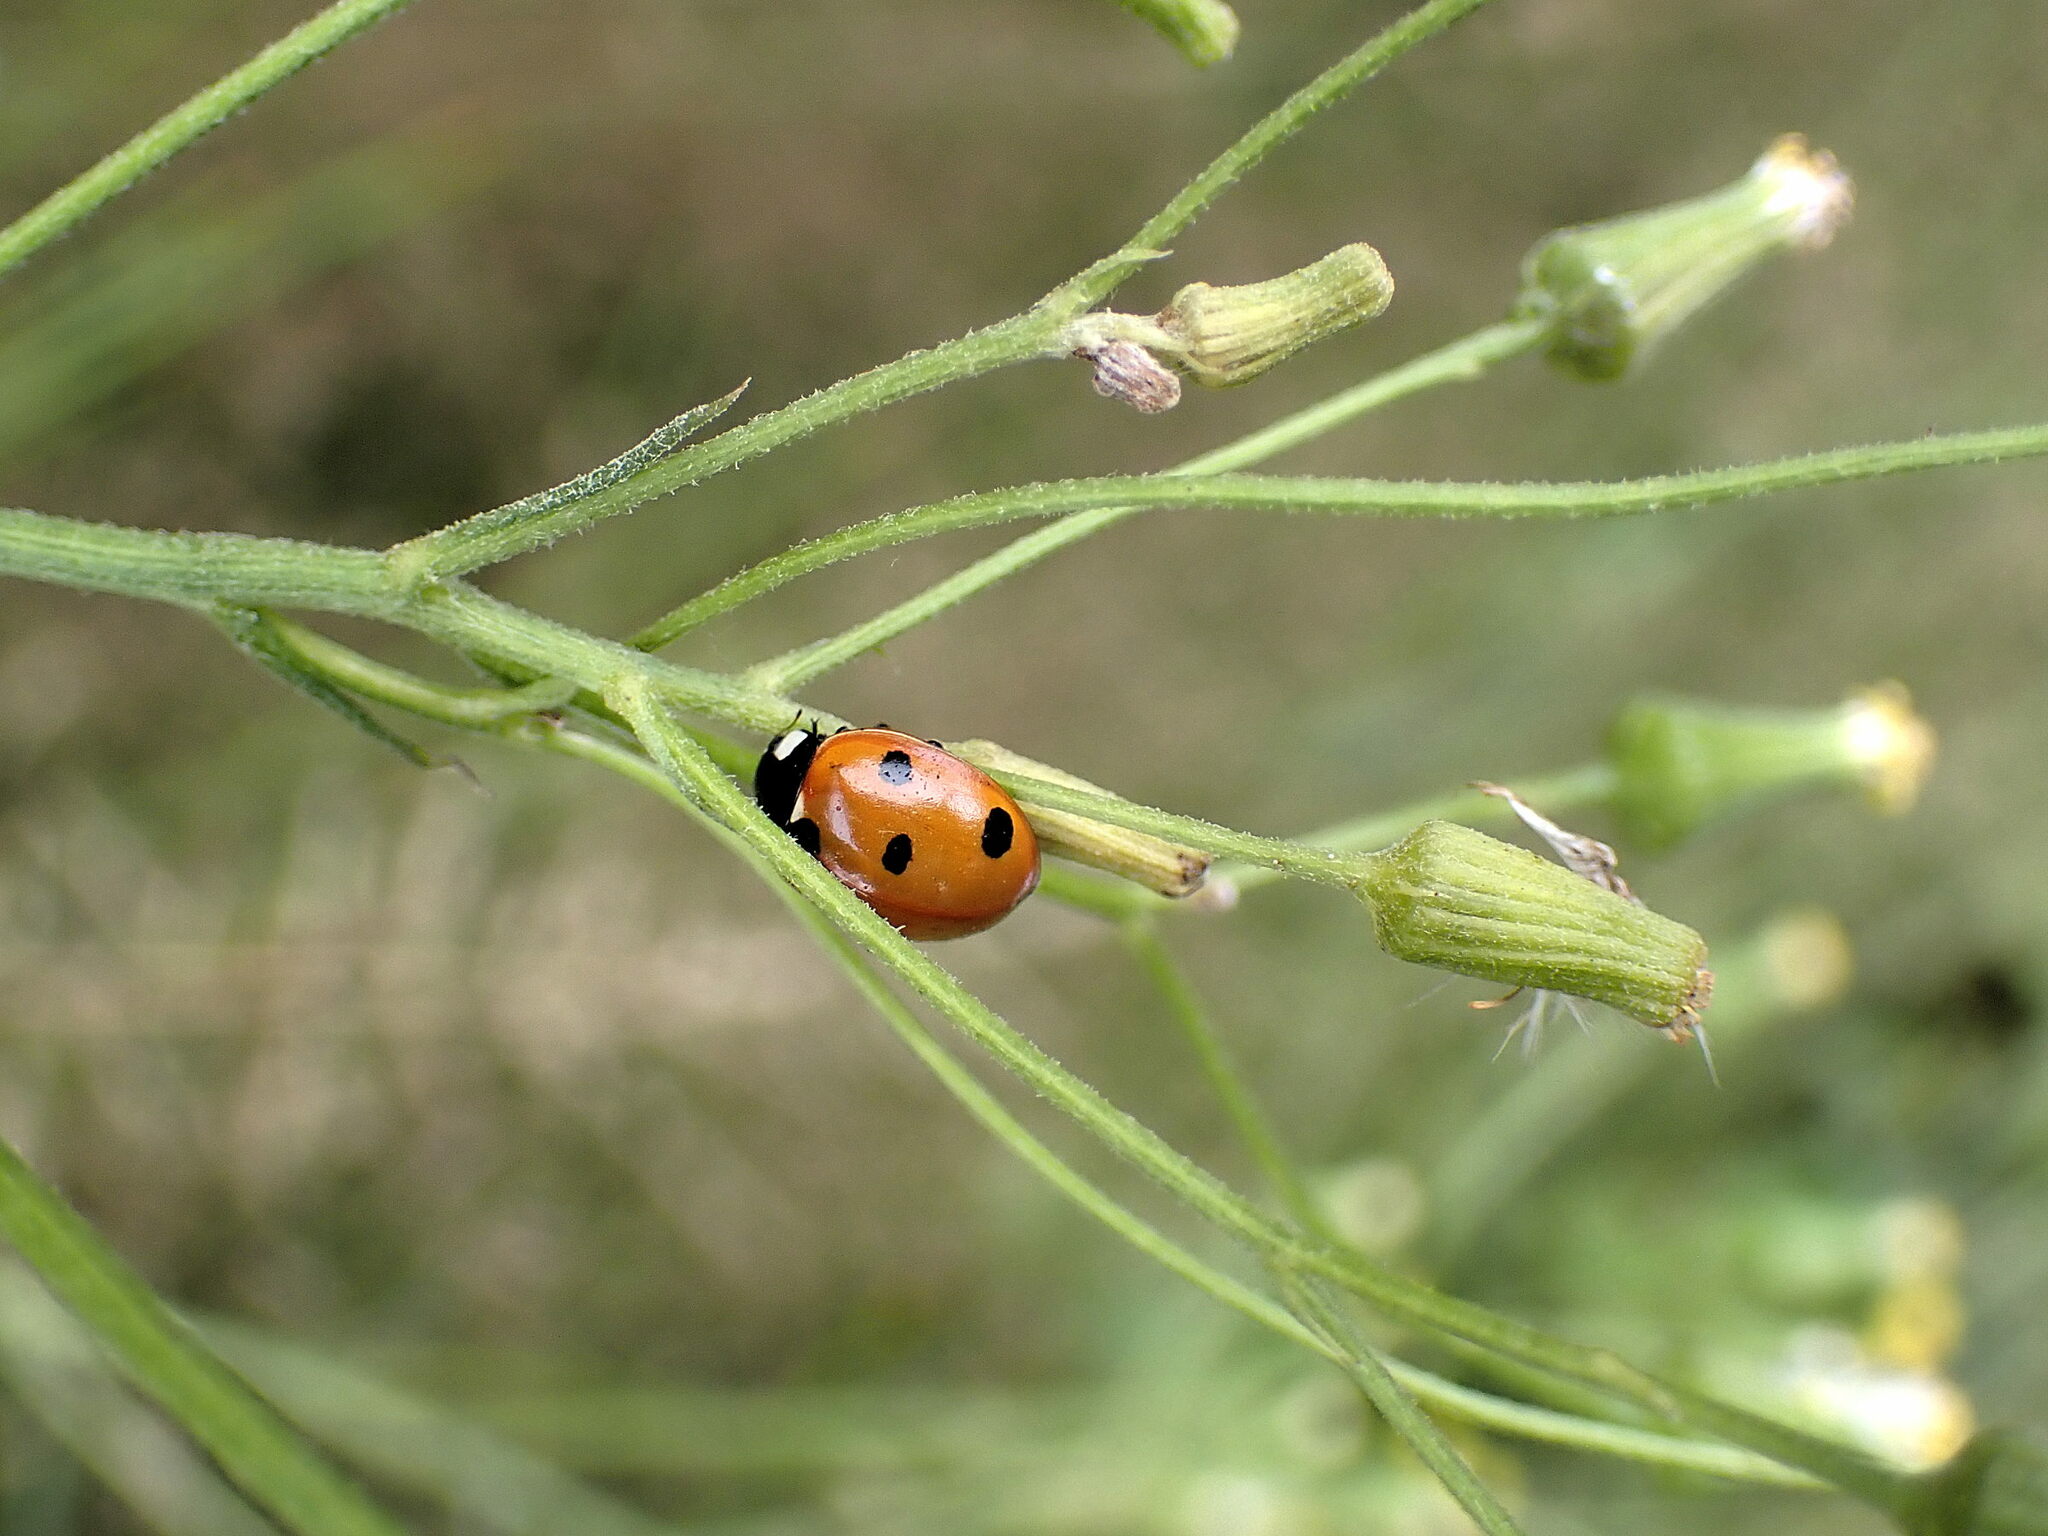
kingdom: Animalia
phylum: Arthropoda
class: Insecta
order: Coleoptera
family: Coccinellidae
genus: Coccinella
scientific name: Coccinella septempunctata
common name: Sevenspotted lady beetle
